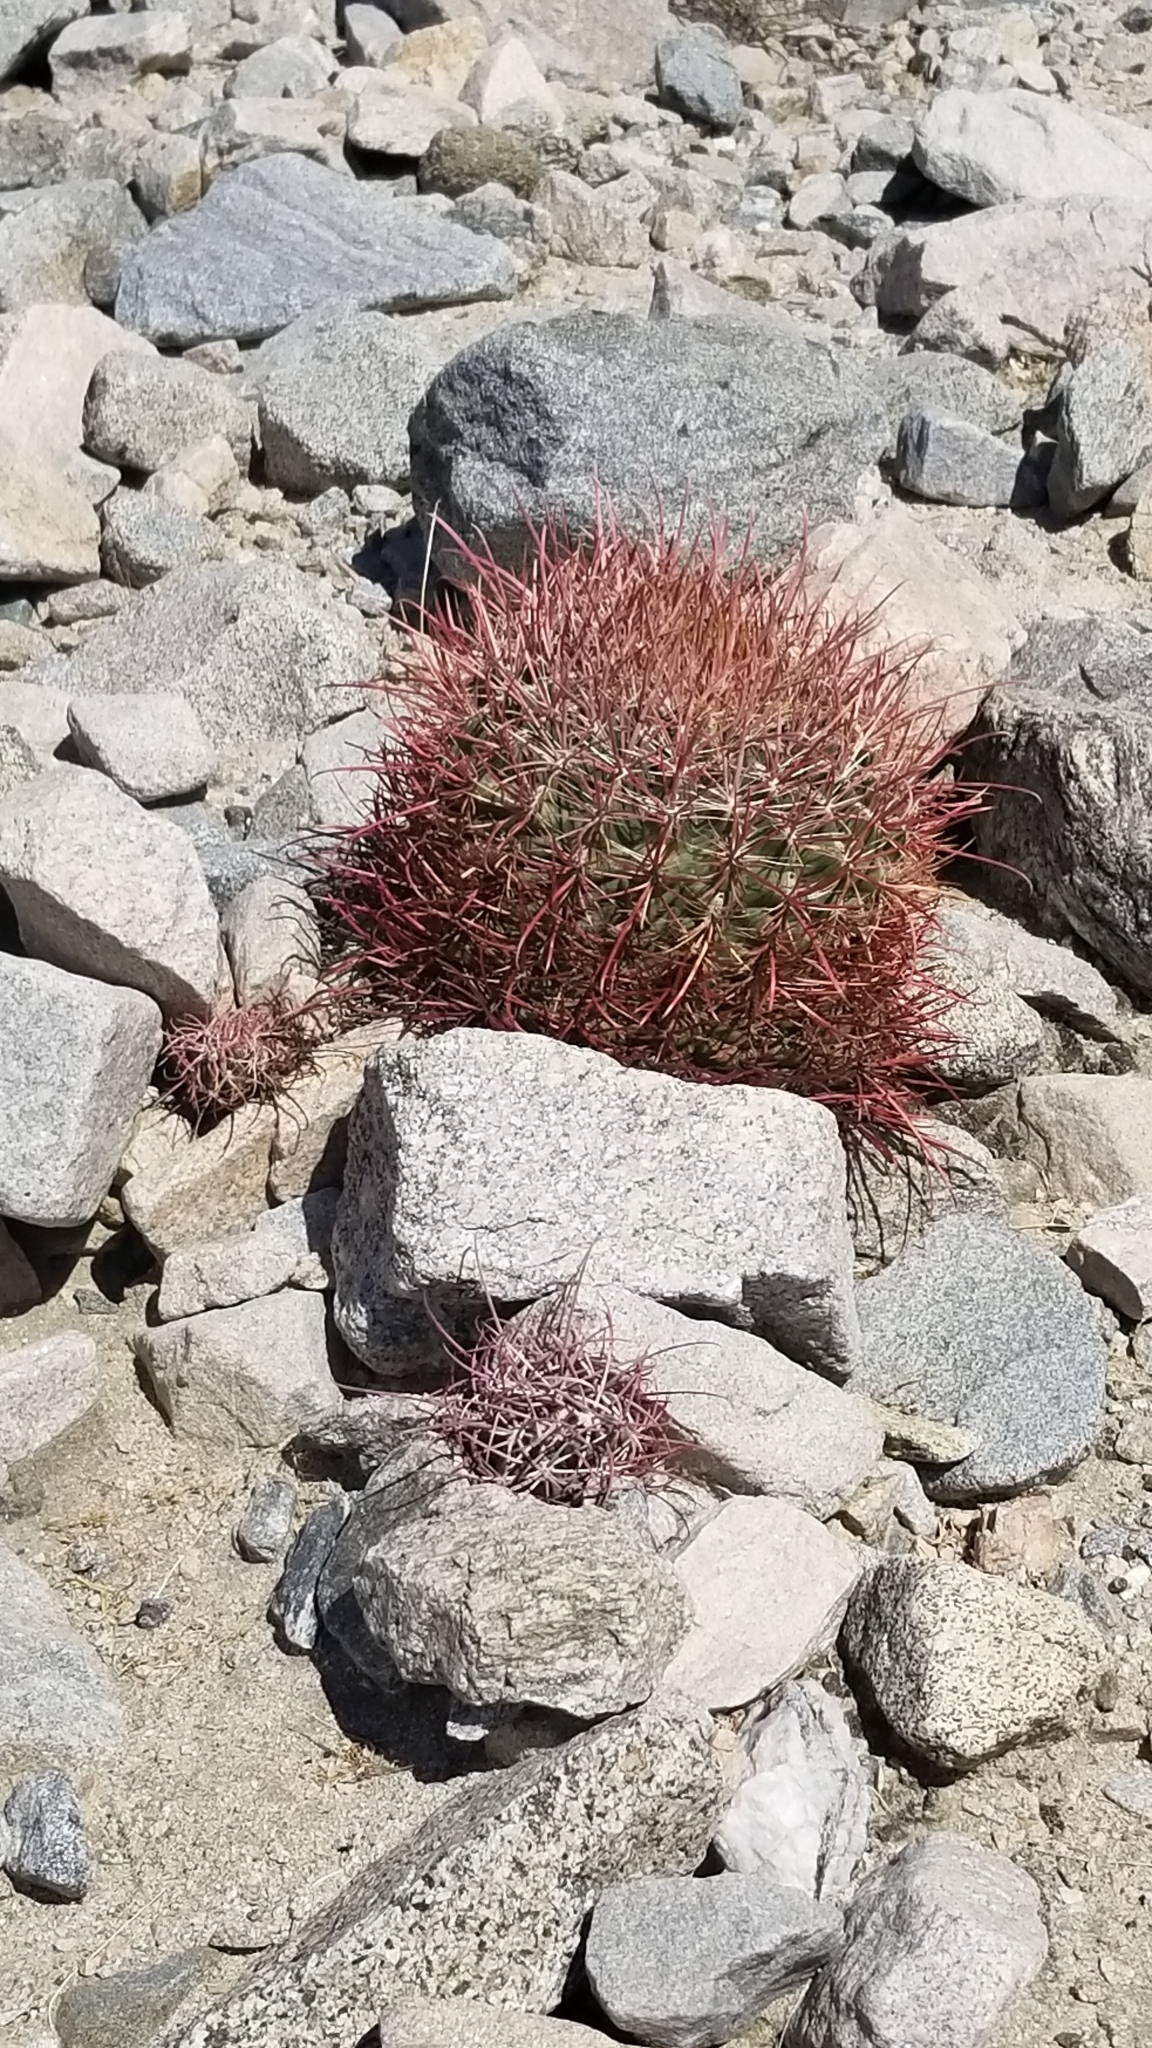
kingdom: Plantae
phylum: Tracheophyta
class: Magnoliopsida
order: Caryophyllales
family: Cactaceae
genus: Ferocactus
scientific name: Ferocactus cylindraceus
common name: California barrel cactus
